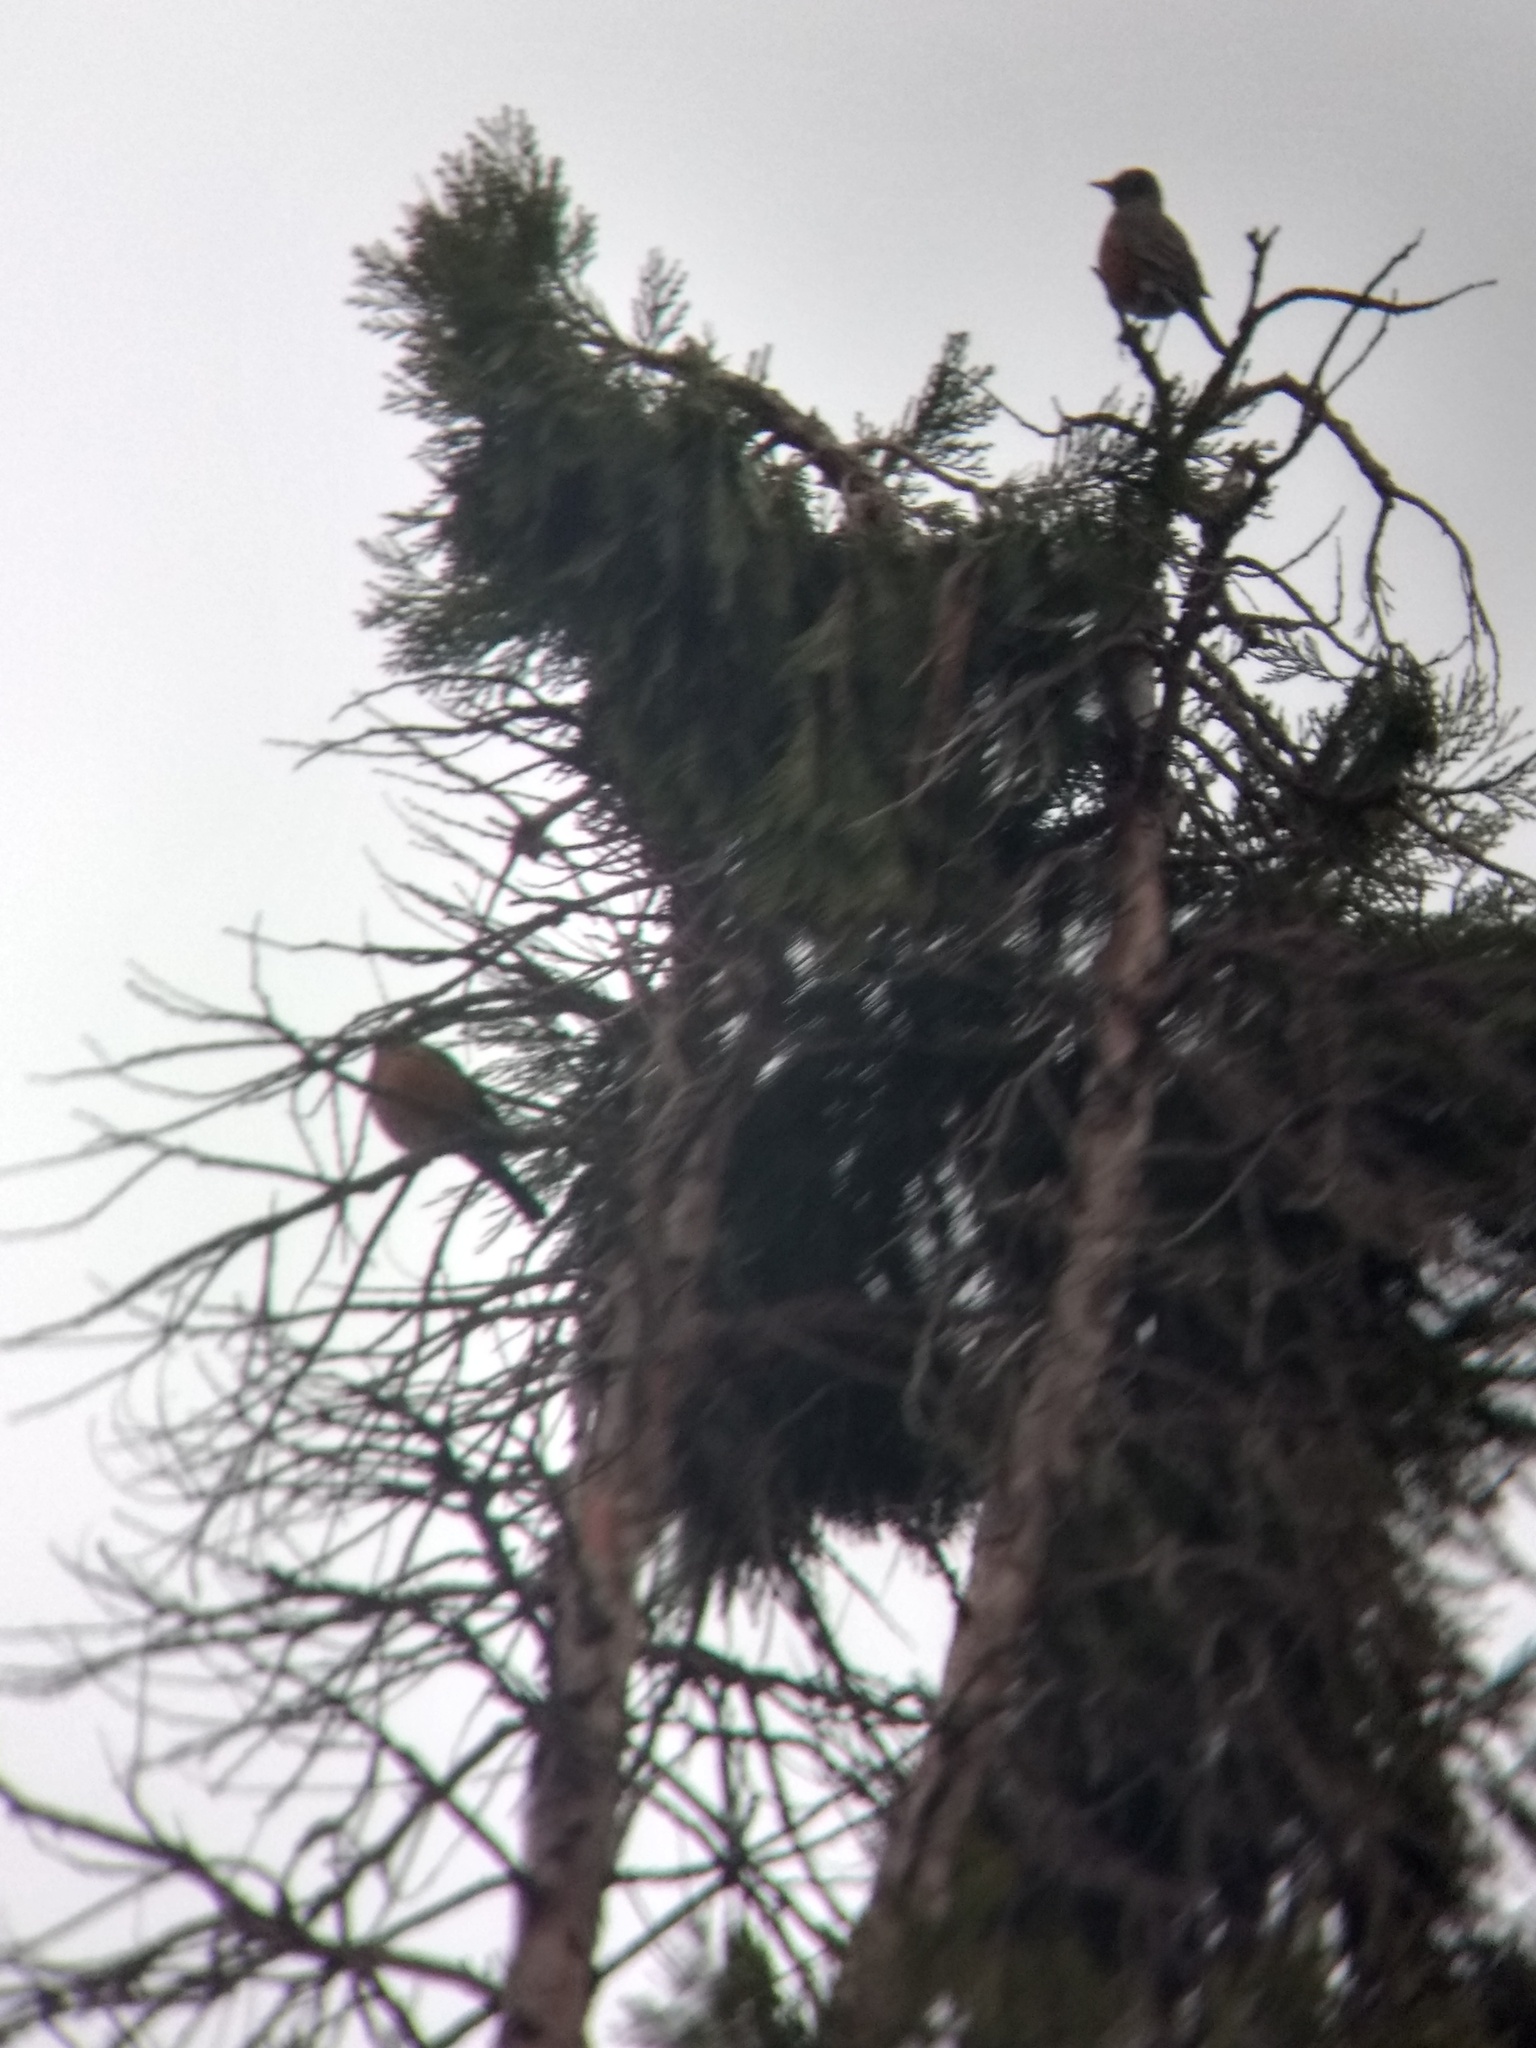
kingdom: Animalia
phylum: Chordata
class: Aves
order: Passeriformes
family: Turdidae
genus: Turdus
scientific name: Turdus migratorius
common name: American robin
